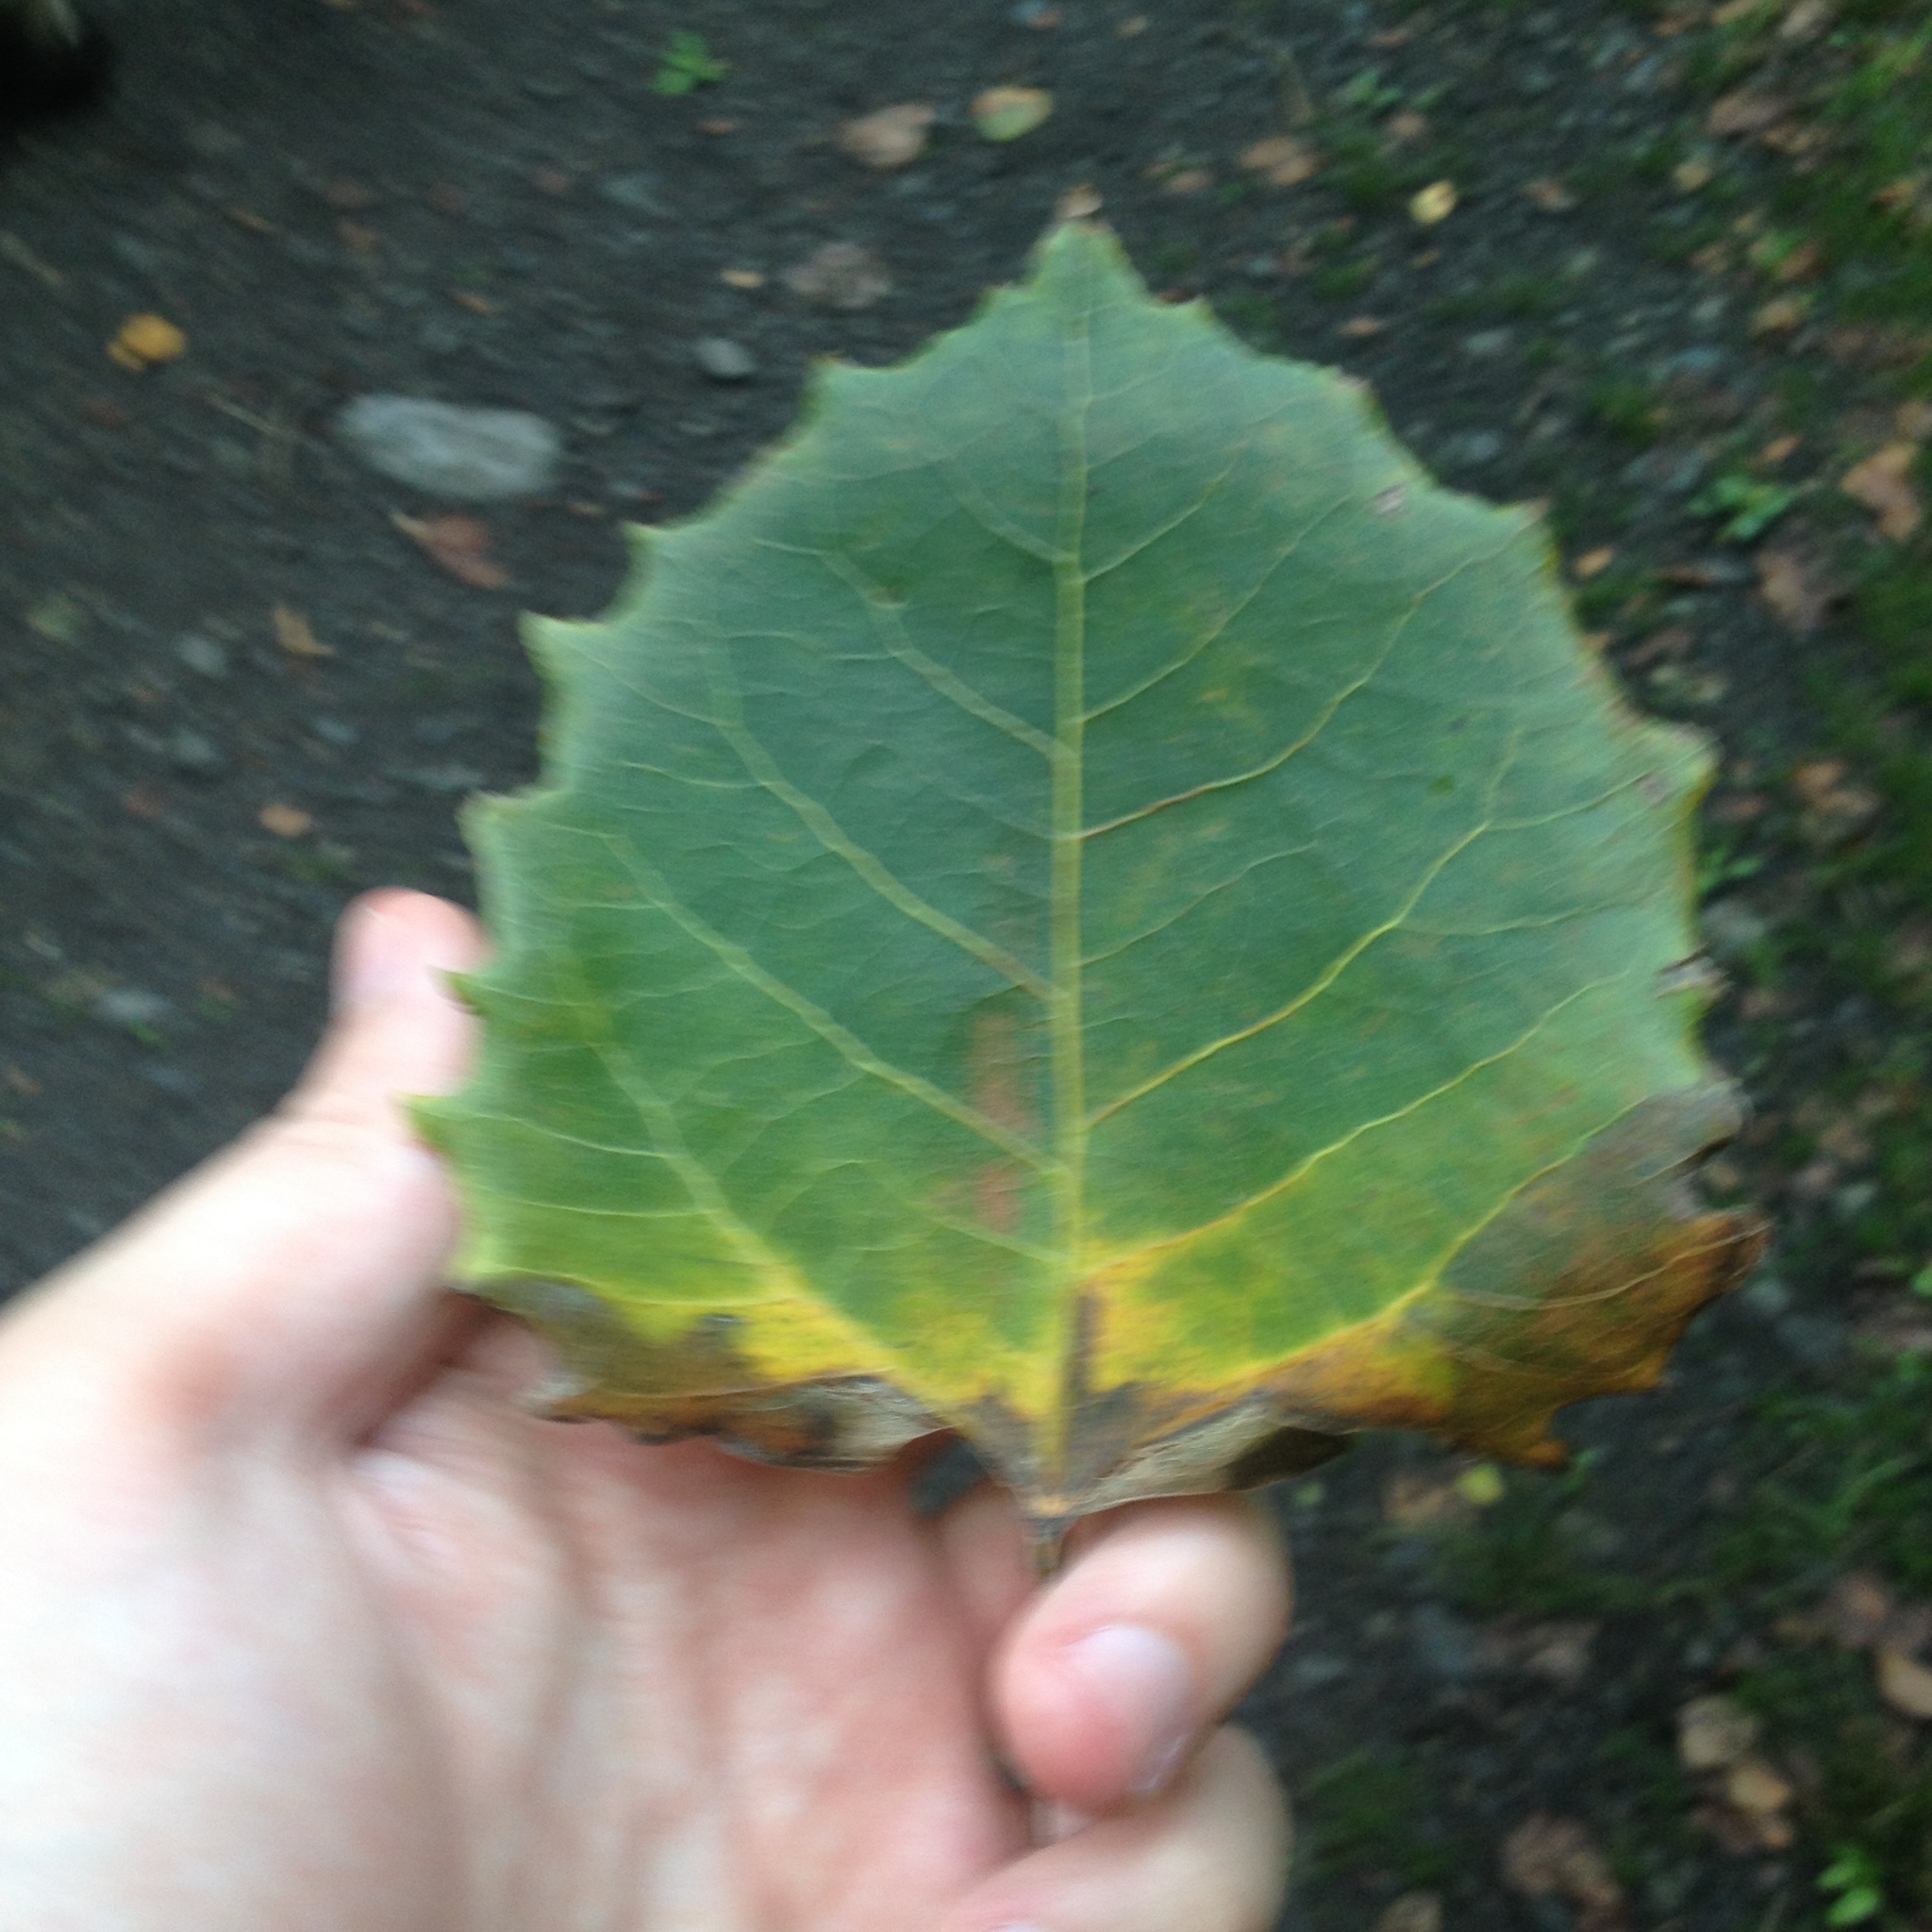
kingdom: Plantae
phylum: Tracheophyta
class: Magnoliopsida
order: Malpighiales
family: Salicaceae
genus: Populus
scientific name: Populus grandidentata
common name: Bigtooth aspen
